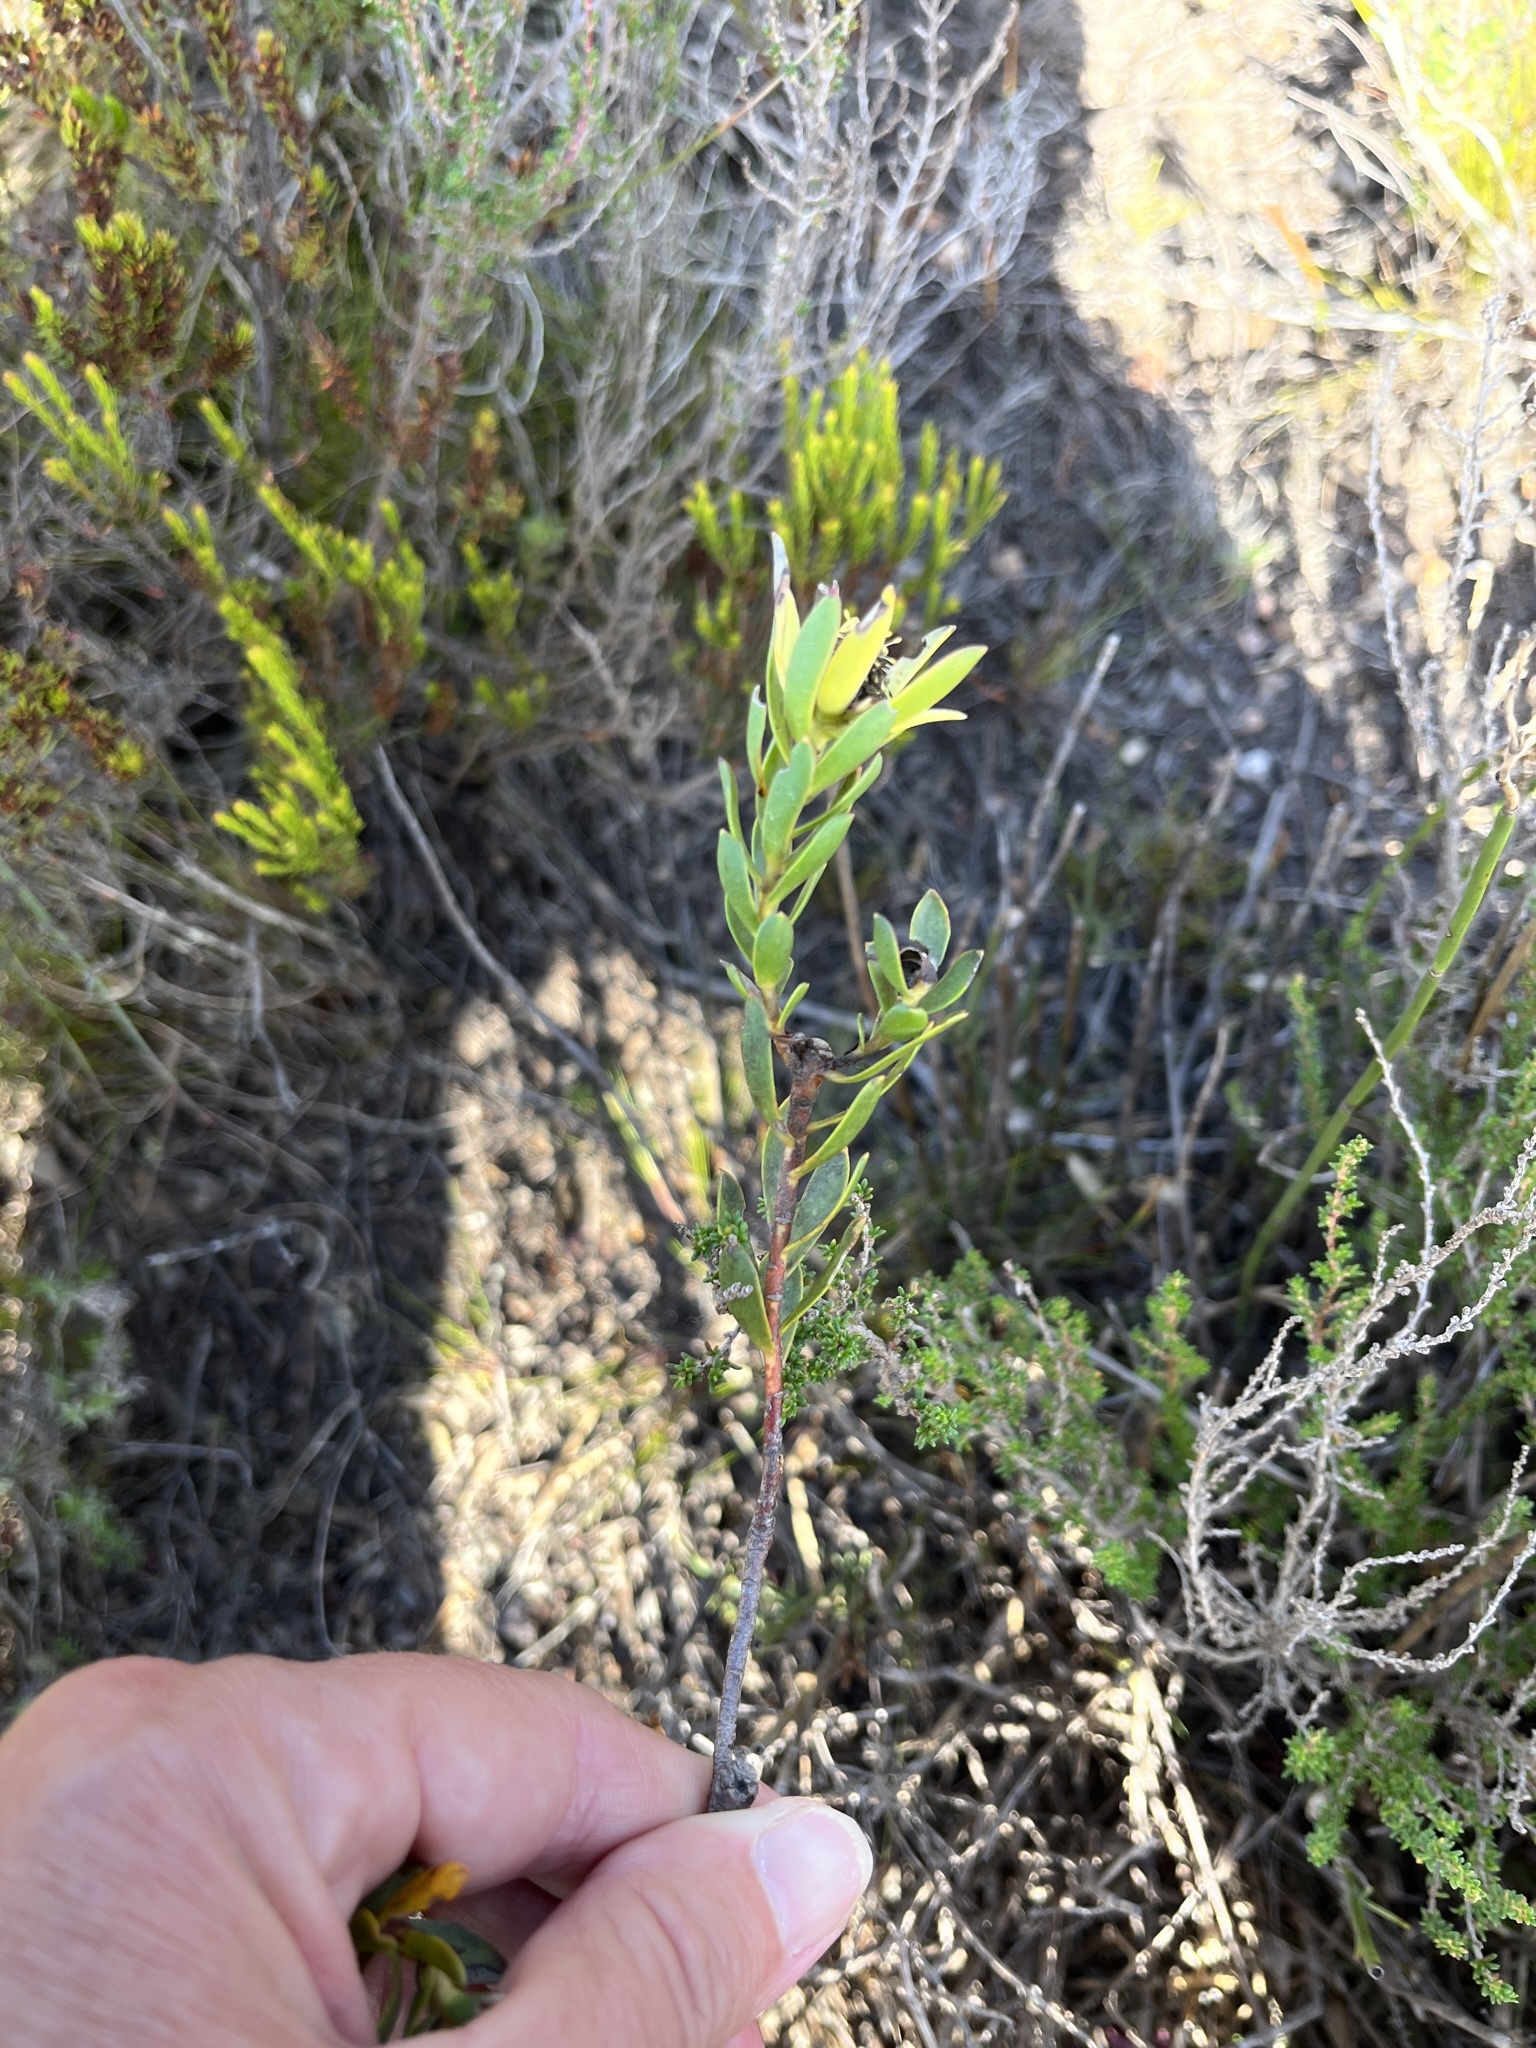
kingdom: Plantae
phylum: Tracheophyta
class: Magnoliopsida
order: Proteales
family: Proteaceae
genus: Leucadendron
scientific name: Leucadendron modestum
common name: Rough-leaf conebush
